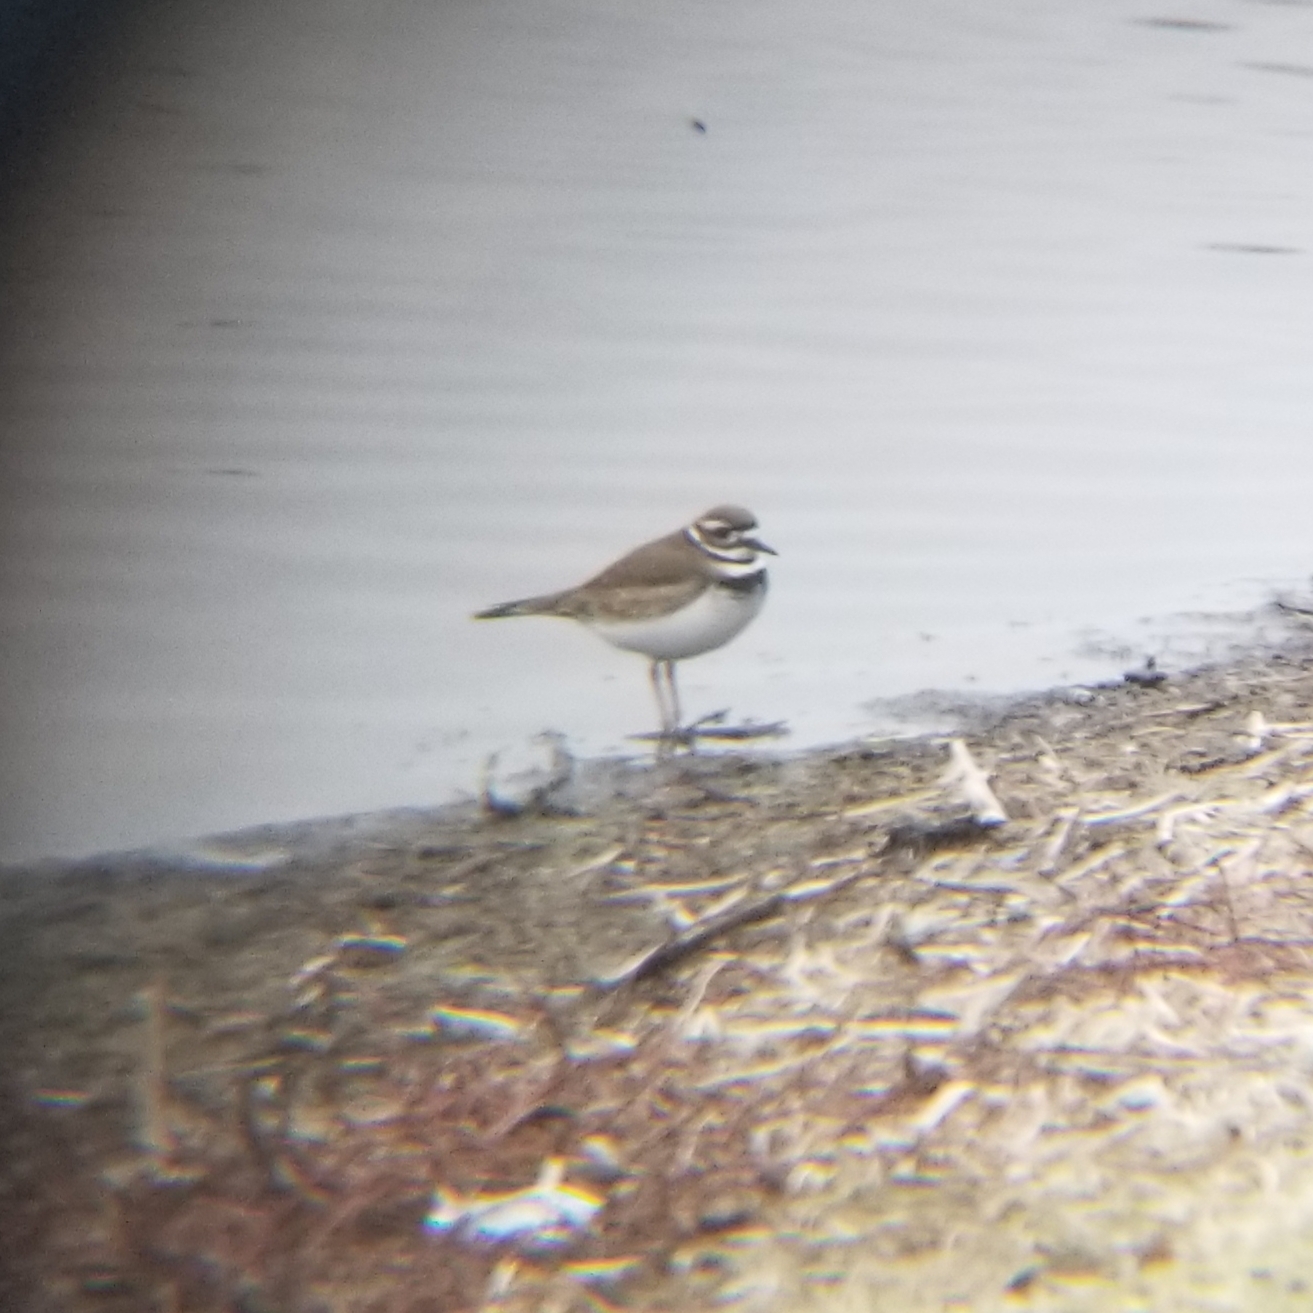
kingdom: Animalia
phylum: Chordata
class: Aves
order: Charadriiformes
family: Charadriidae
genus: Charadrius
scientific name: Charadrius vociferus
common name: Killdeer
